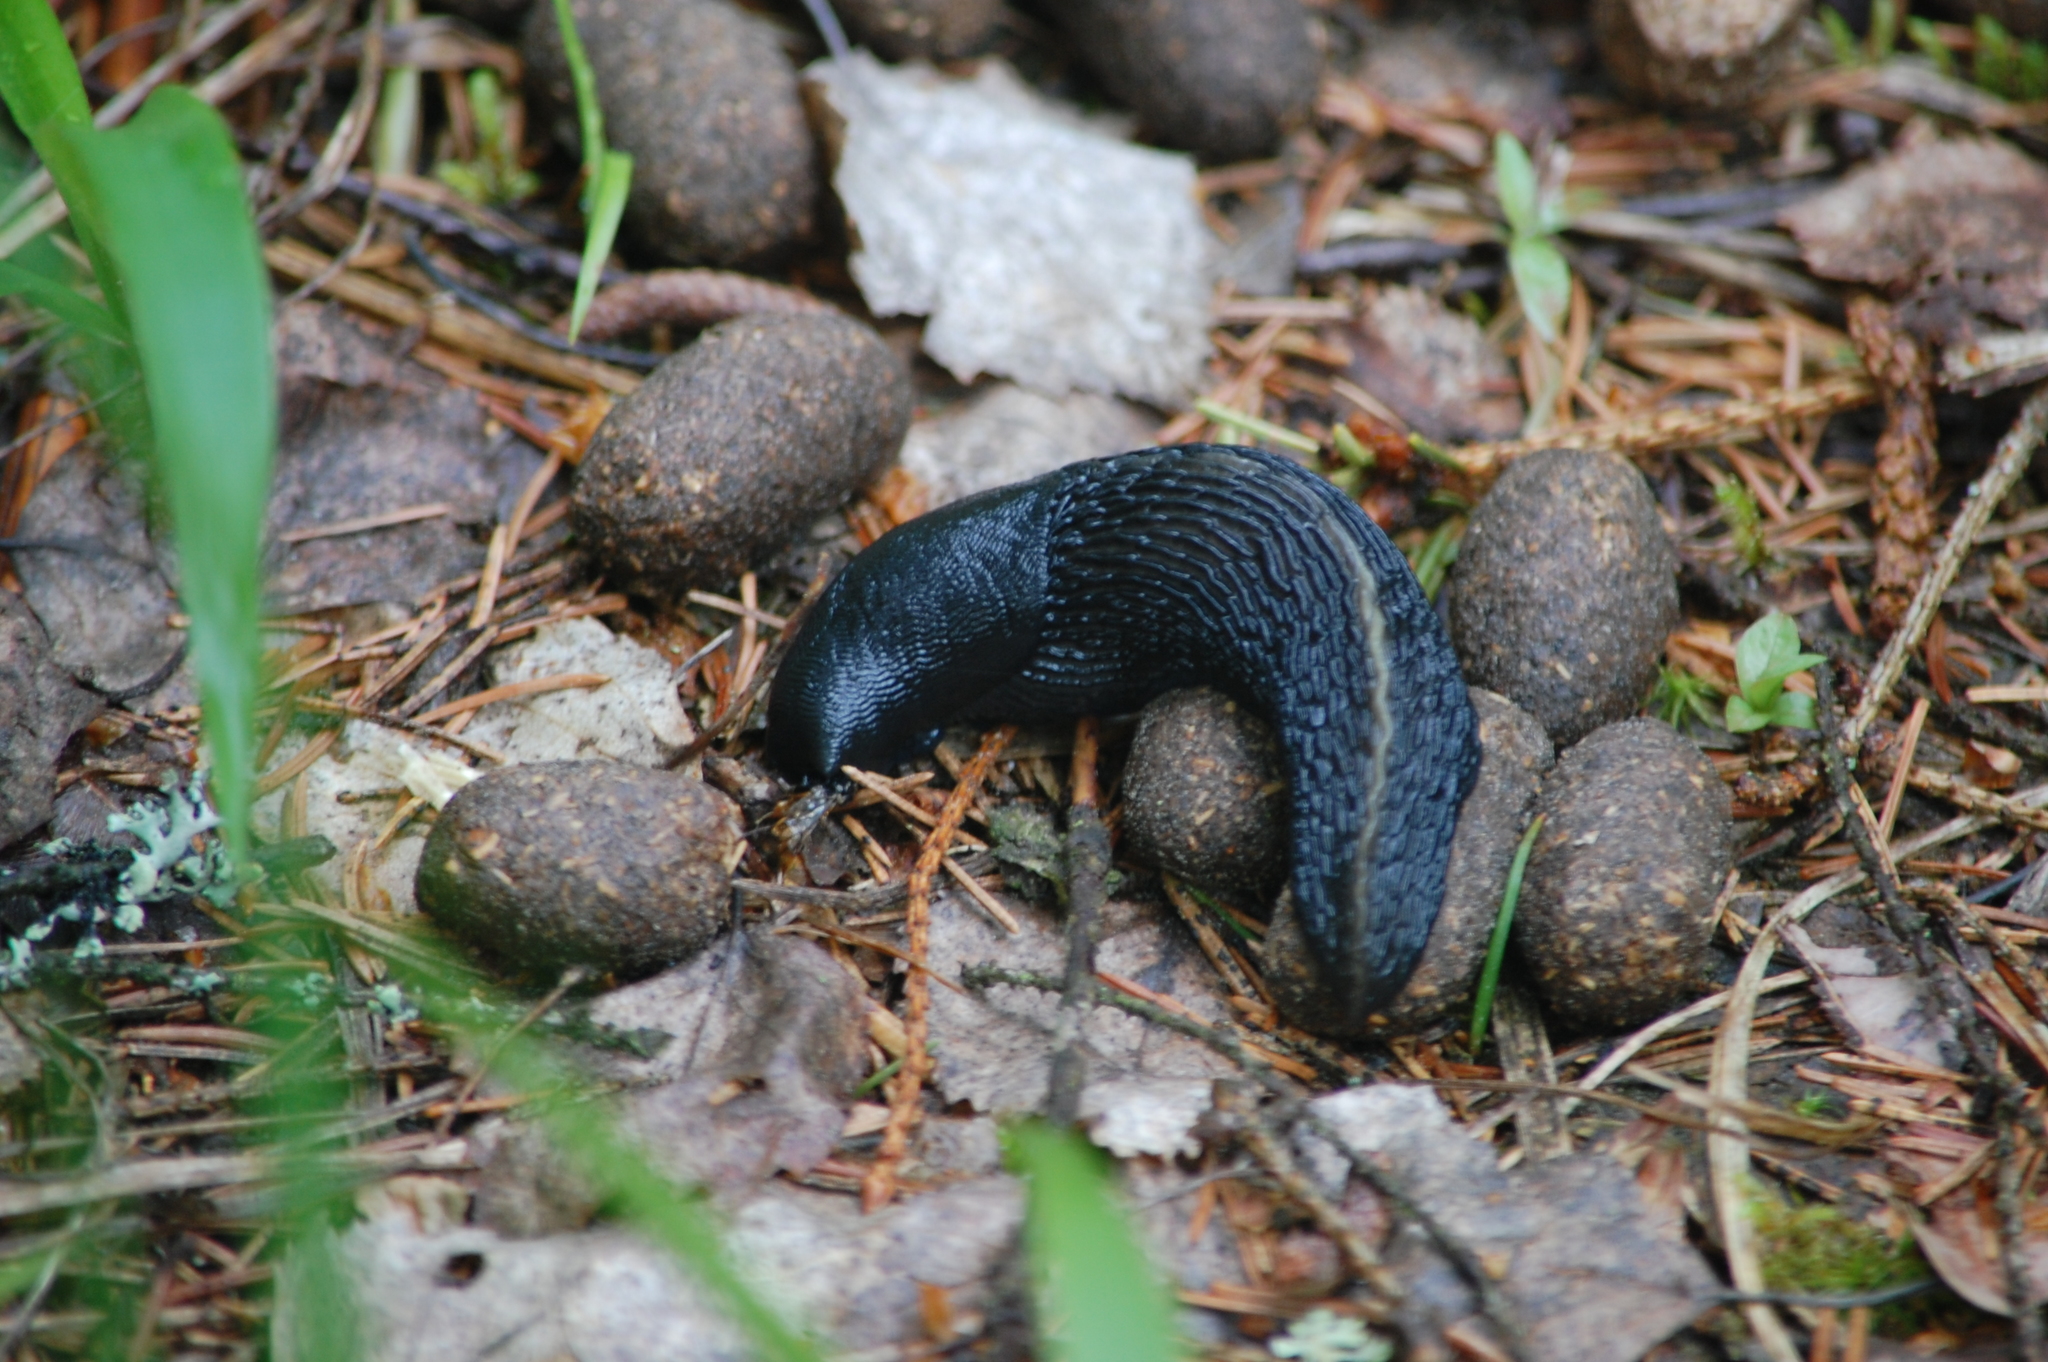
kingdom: Animalia
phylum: Mollusca
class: Gastropoda
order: Stylommatophora
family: Limacidae
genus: Limax
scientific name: Limax cinereoniger
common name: Ash-black slug
